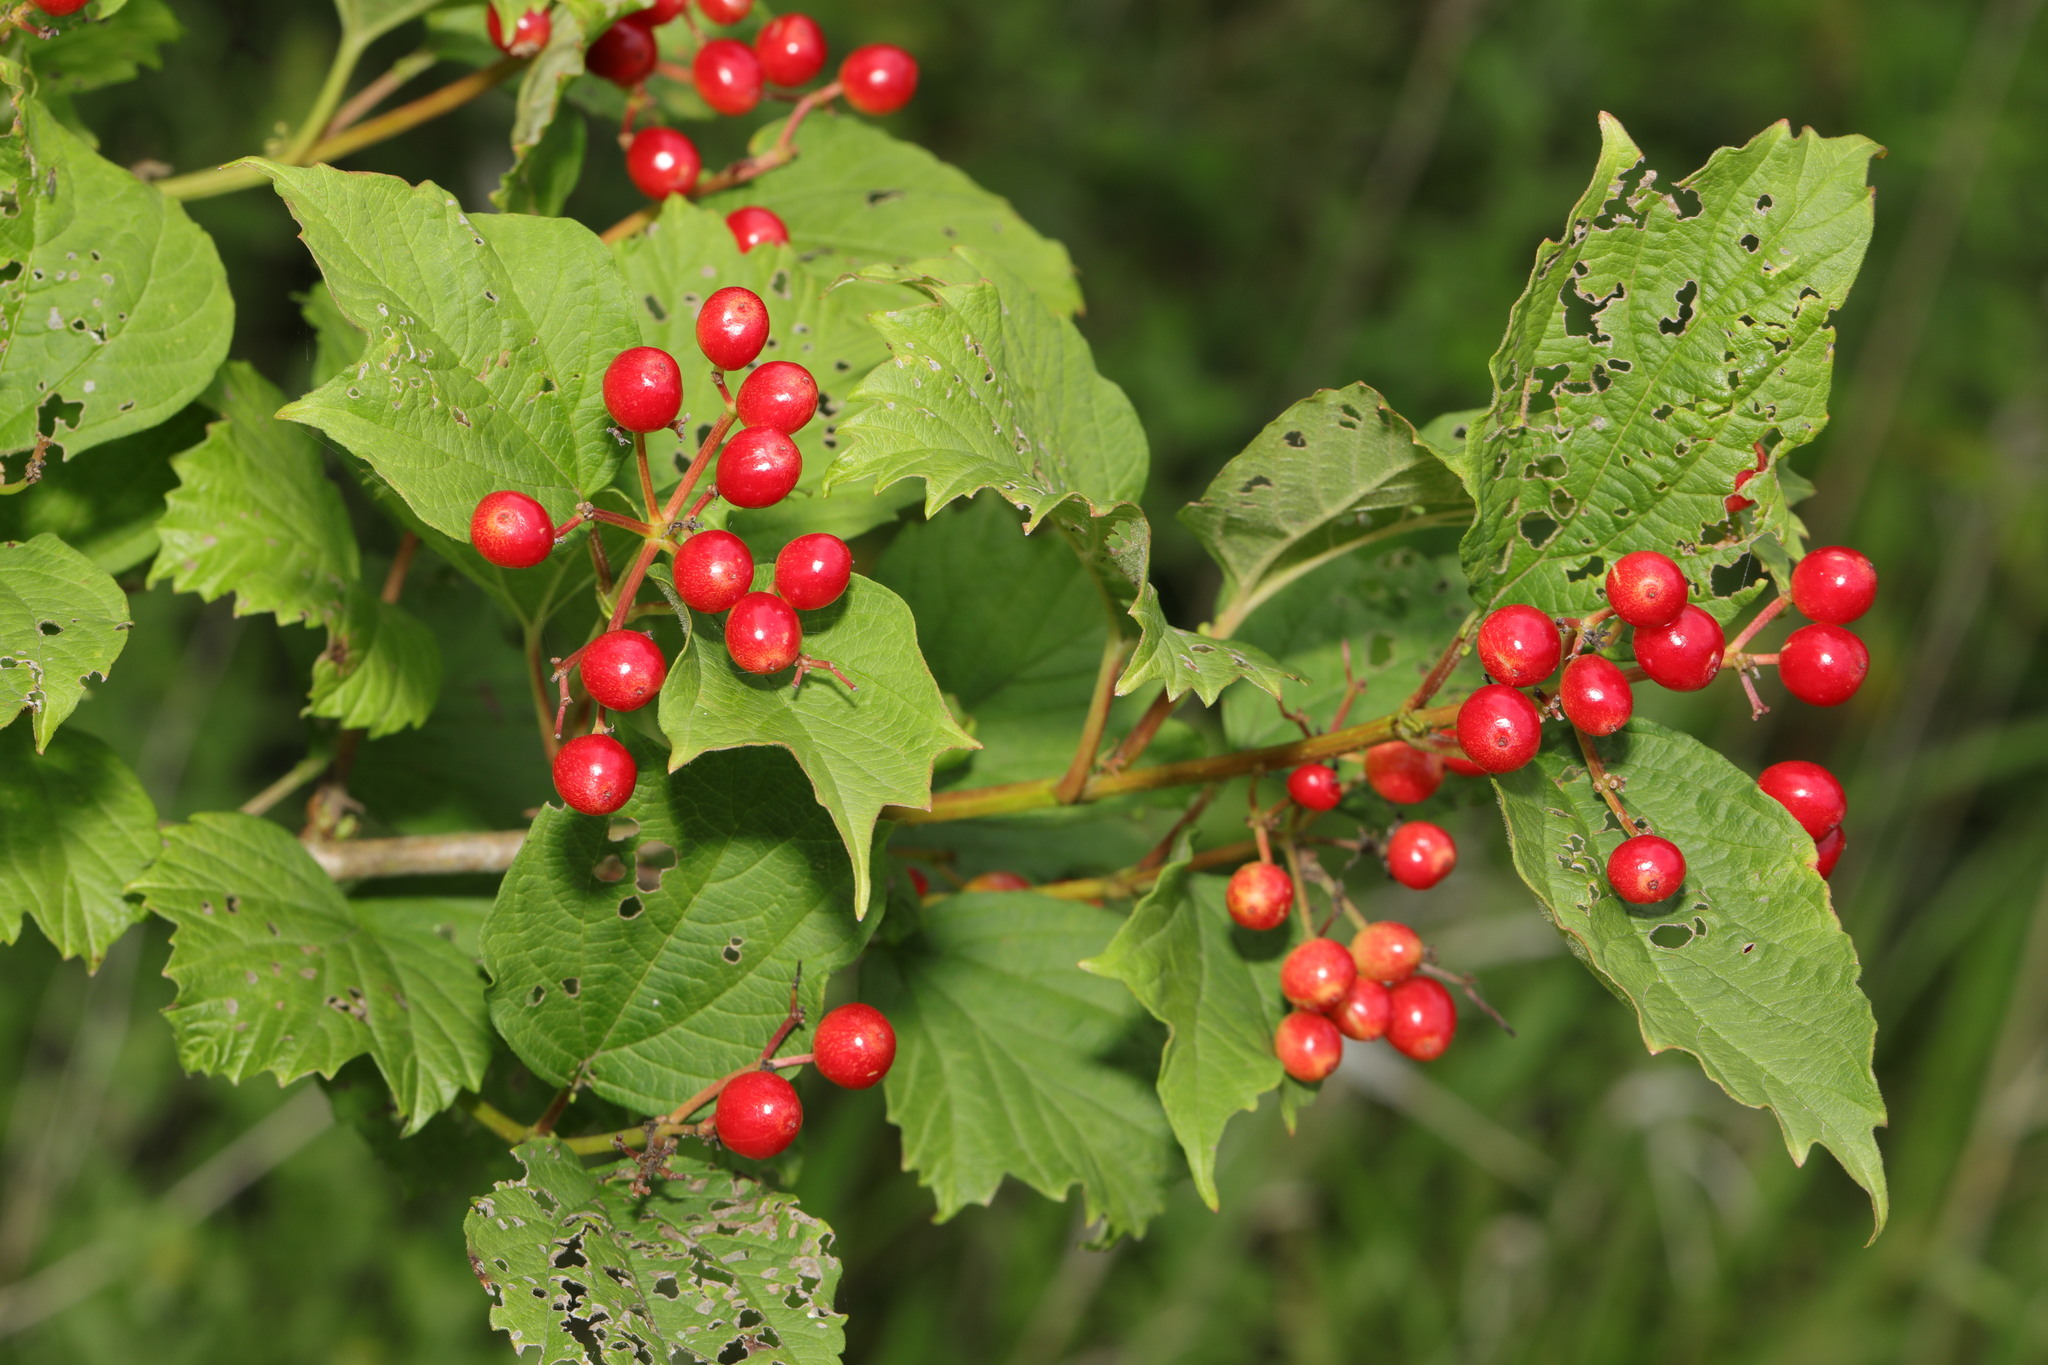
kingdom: Plantae
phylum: Tracheophyta
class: Magnoliopsida
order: Dipsacales
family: Viburnaceae
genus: Viburnum
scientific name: Viburnum opulus
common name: Guelder-rose
